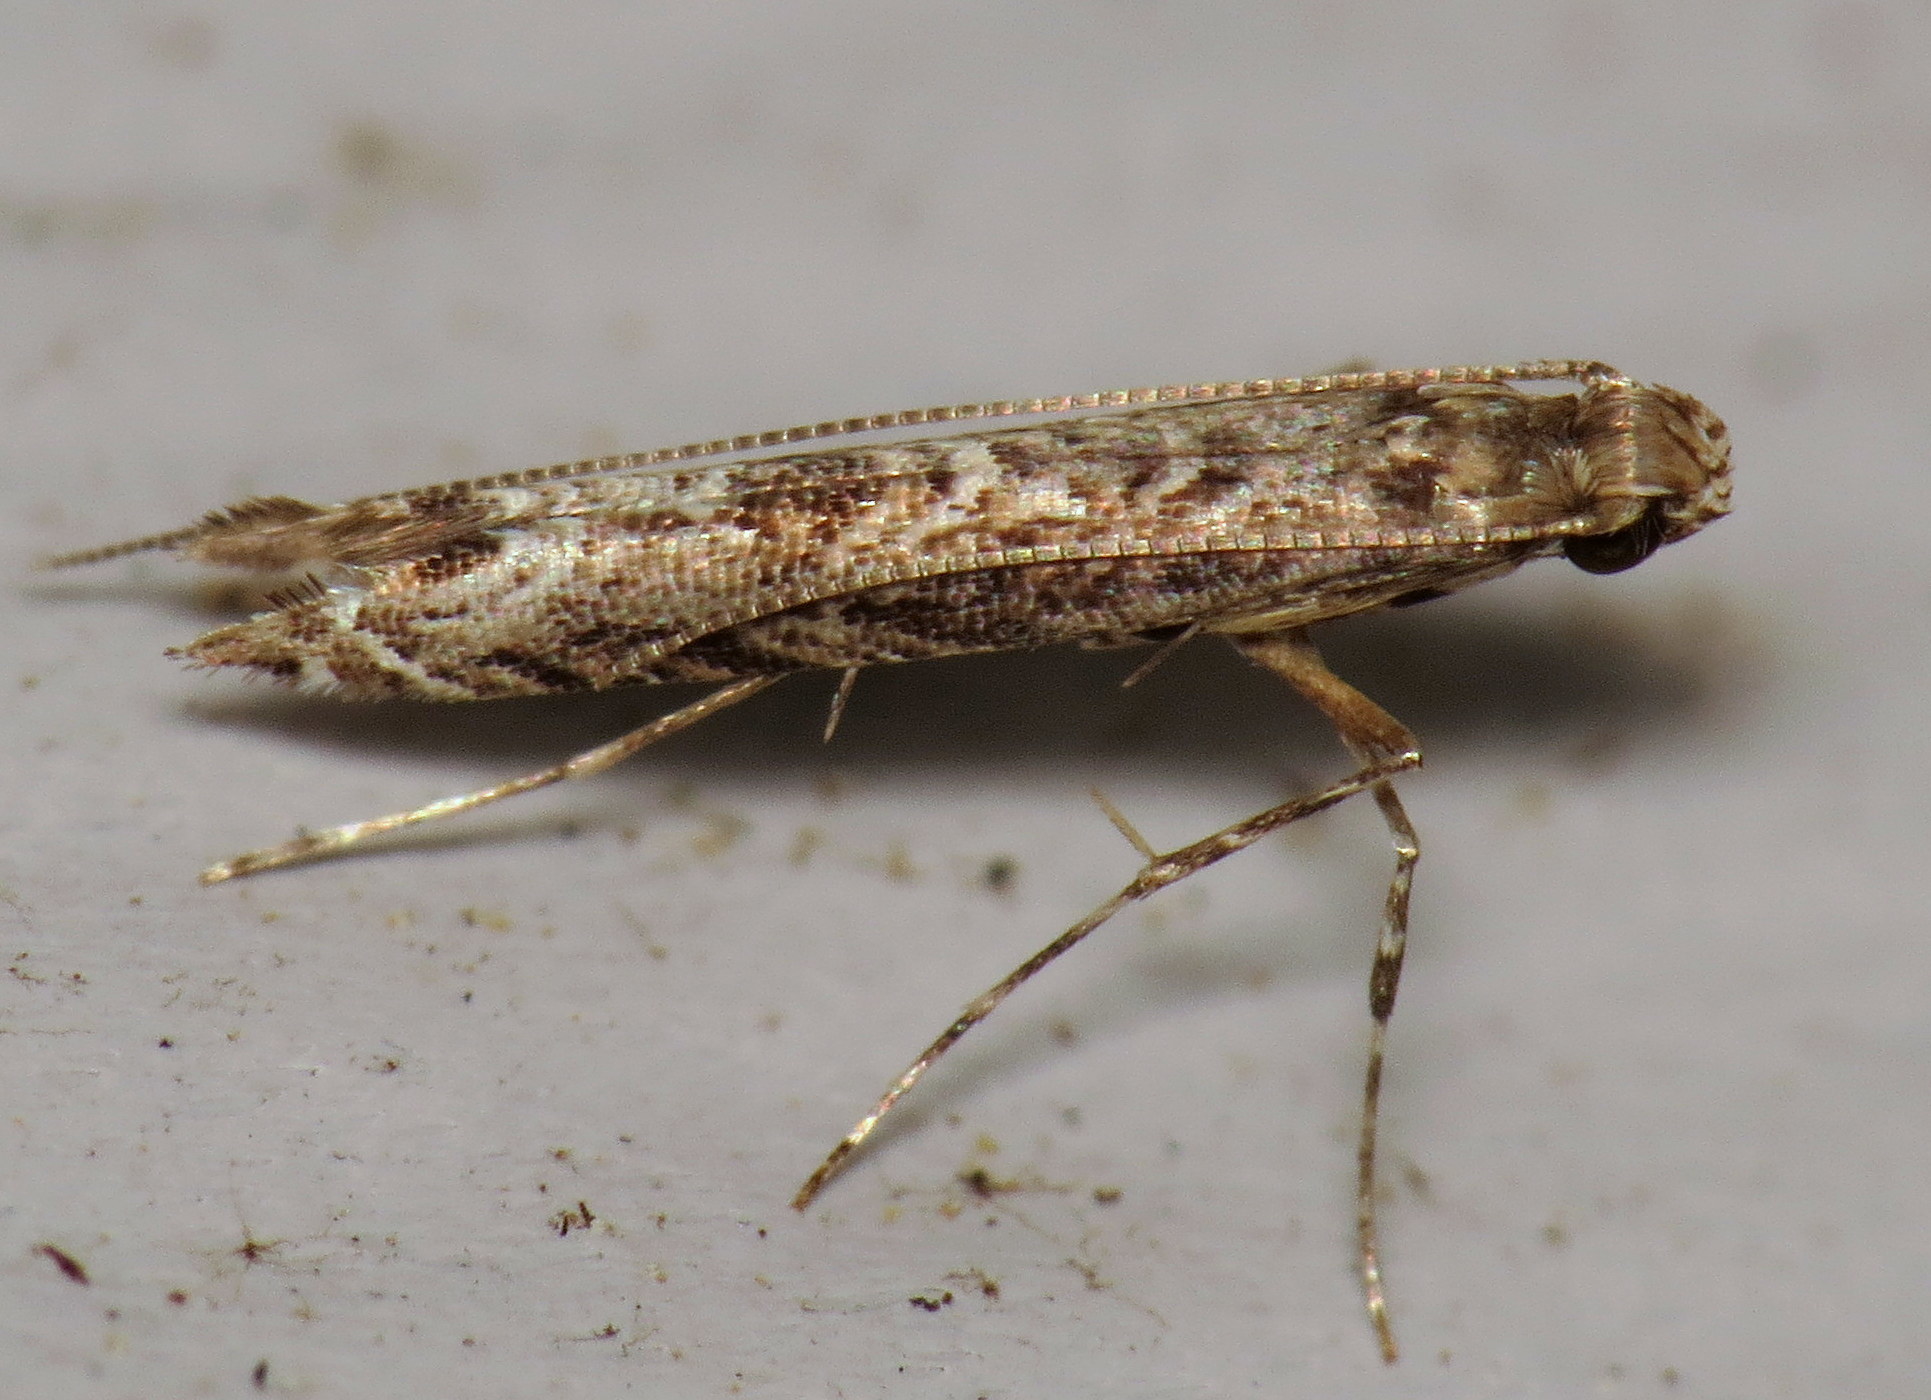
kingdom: Animalia
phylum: Arthropoda
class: Insecta
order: Lepidoptera
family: Gracillariidae
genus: Neurobathra
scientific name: Neurobathra strigifinitella
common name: Finite-channeled leafminer moth
